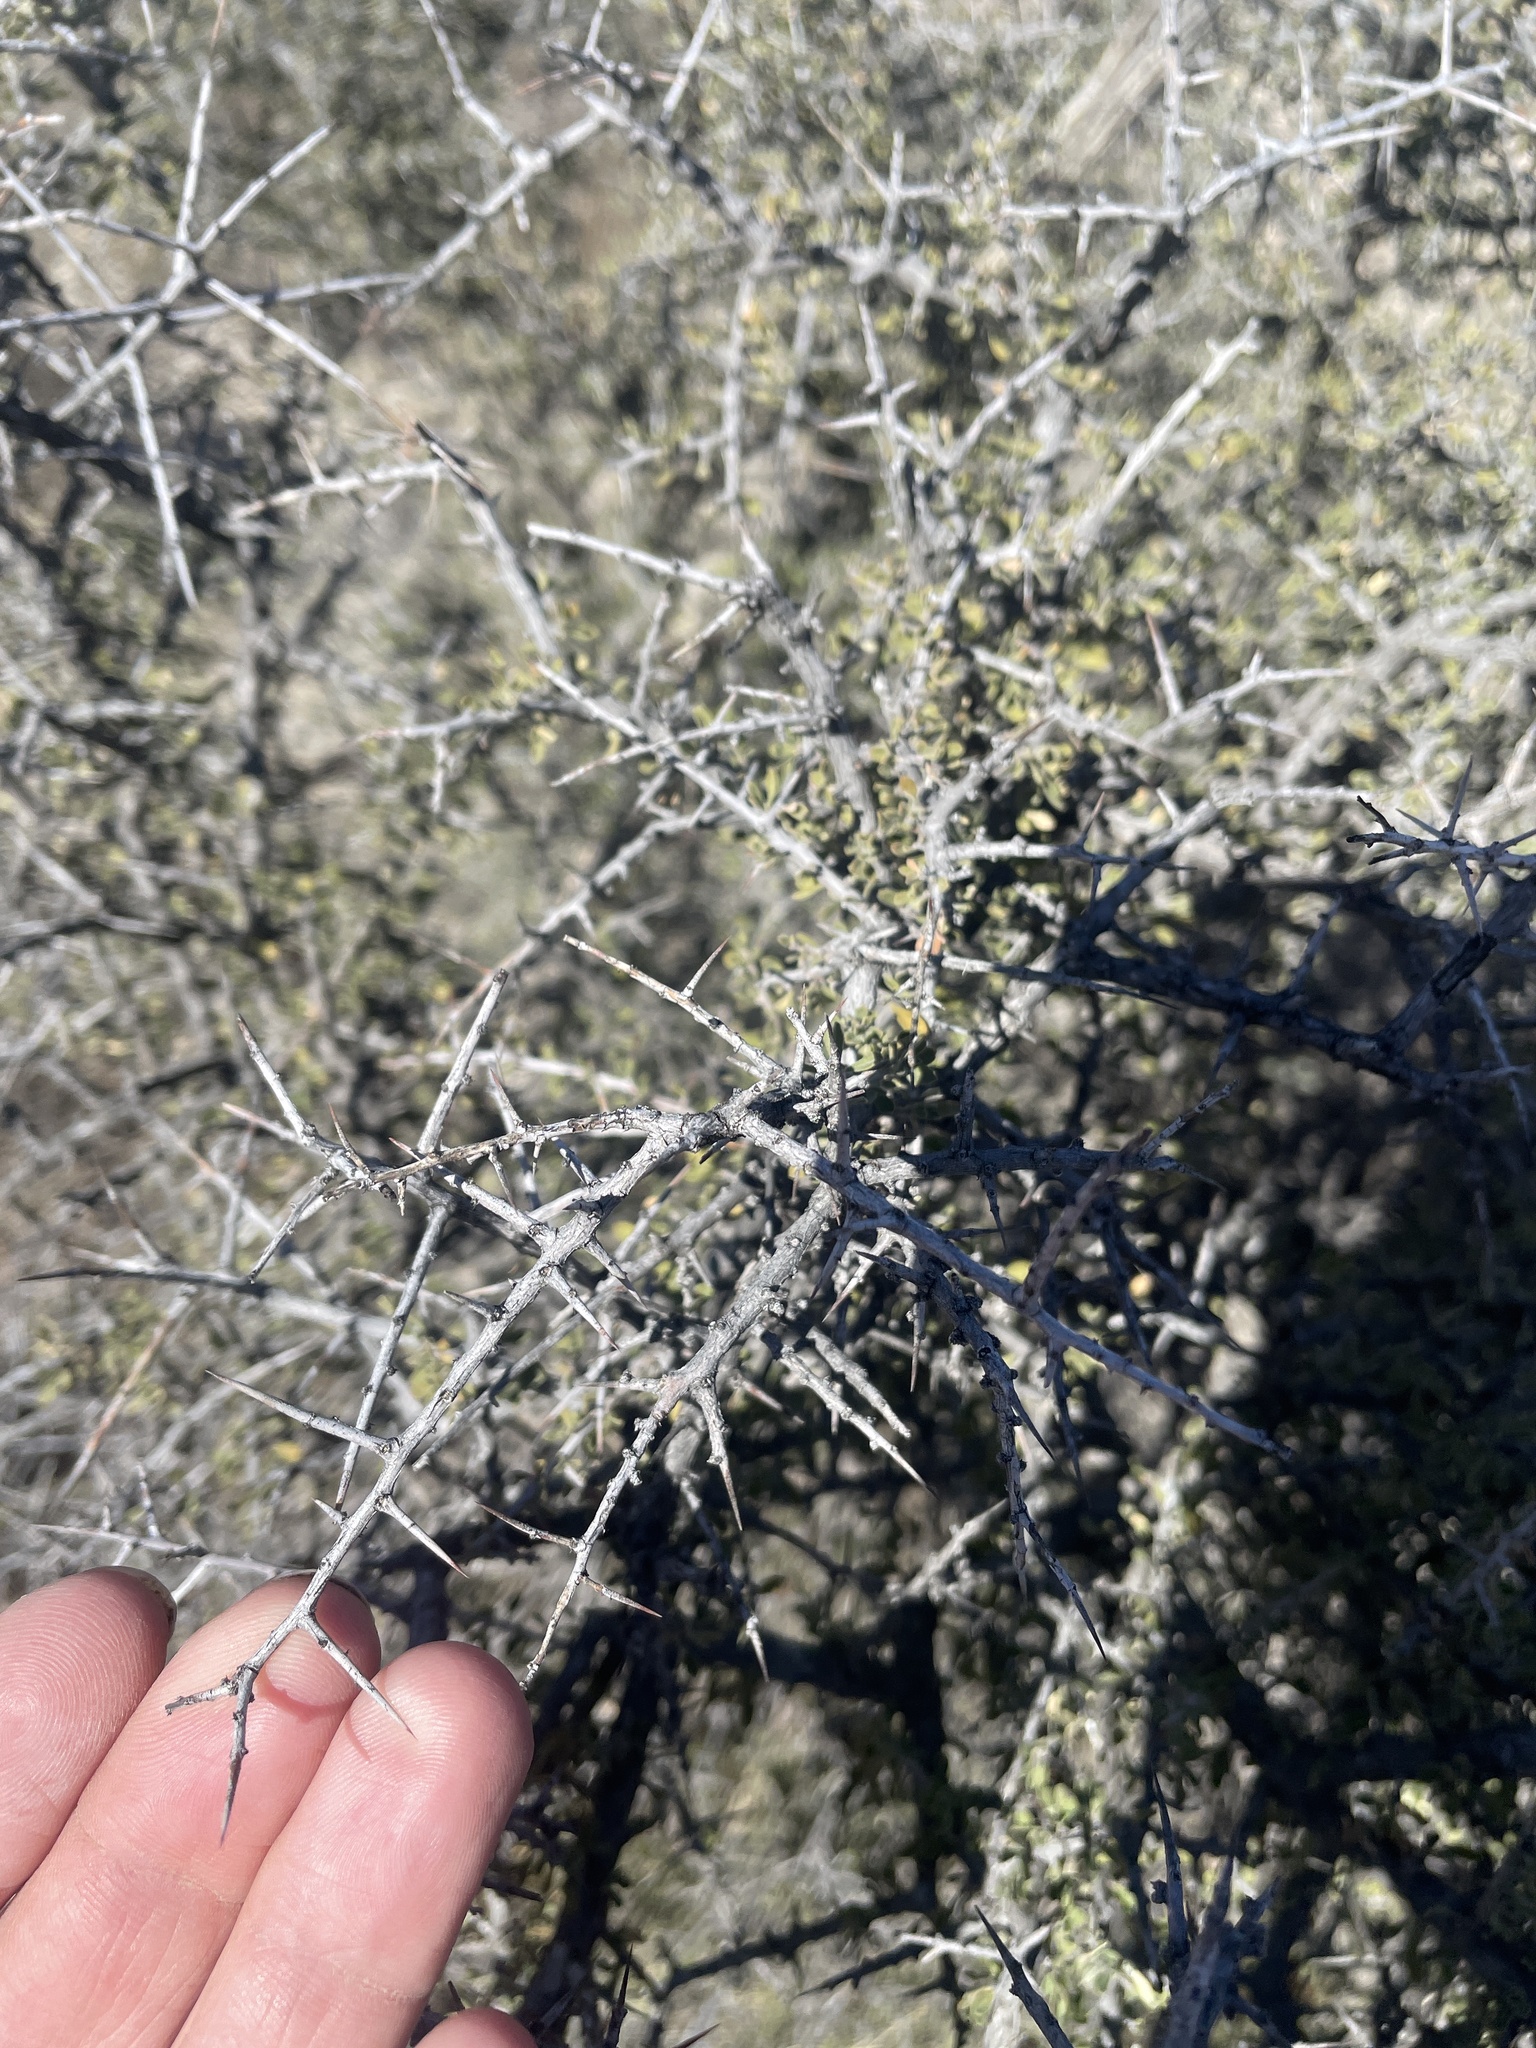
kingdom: Plantae
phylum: Tracheophyta
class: Magnoliopsida
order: Rosales
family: Rhamnaceae
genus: Condalia
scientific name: Condalia warnockii
